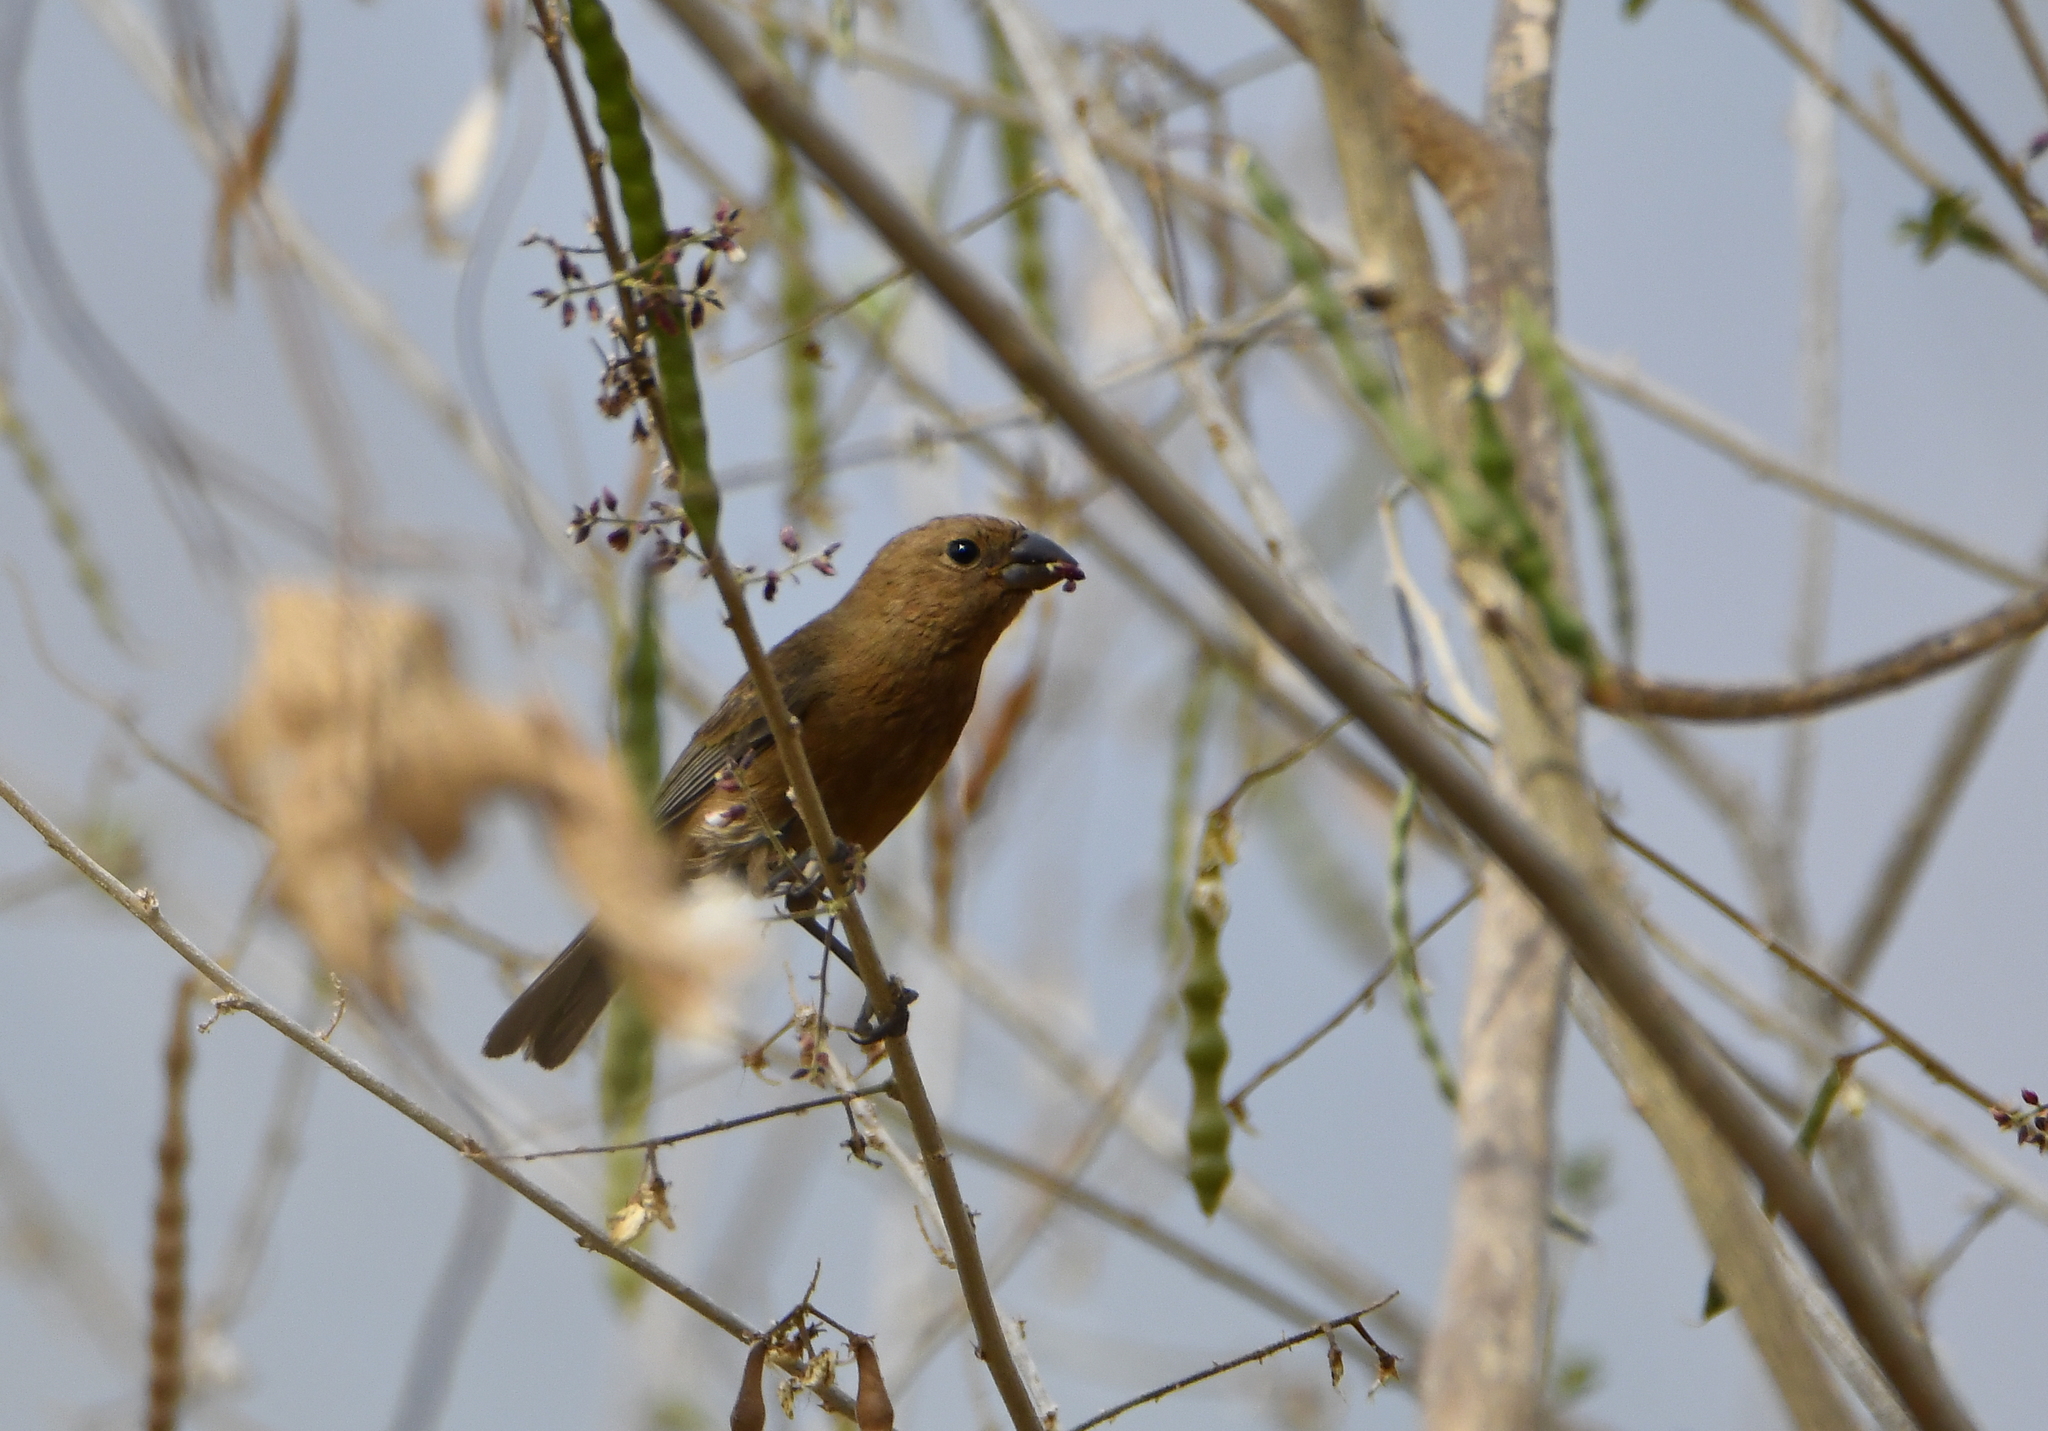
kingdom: Animalia
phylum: Chordata
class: Aves
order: Passeriformes
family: Cardinalidae
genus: Cyanocompsa
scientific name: Cyanocompsa parellina
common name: Blue bunting
